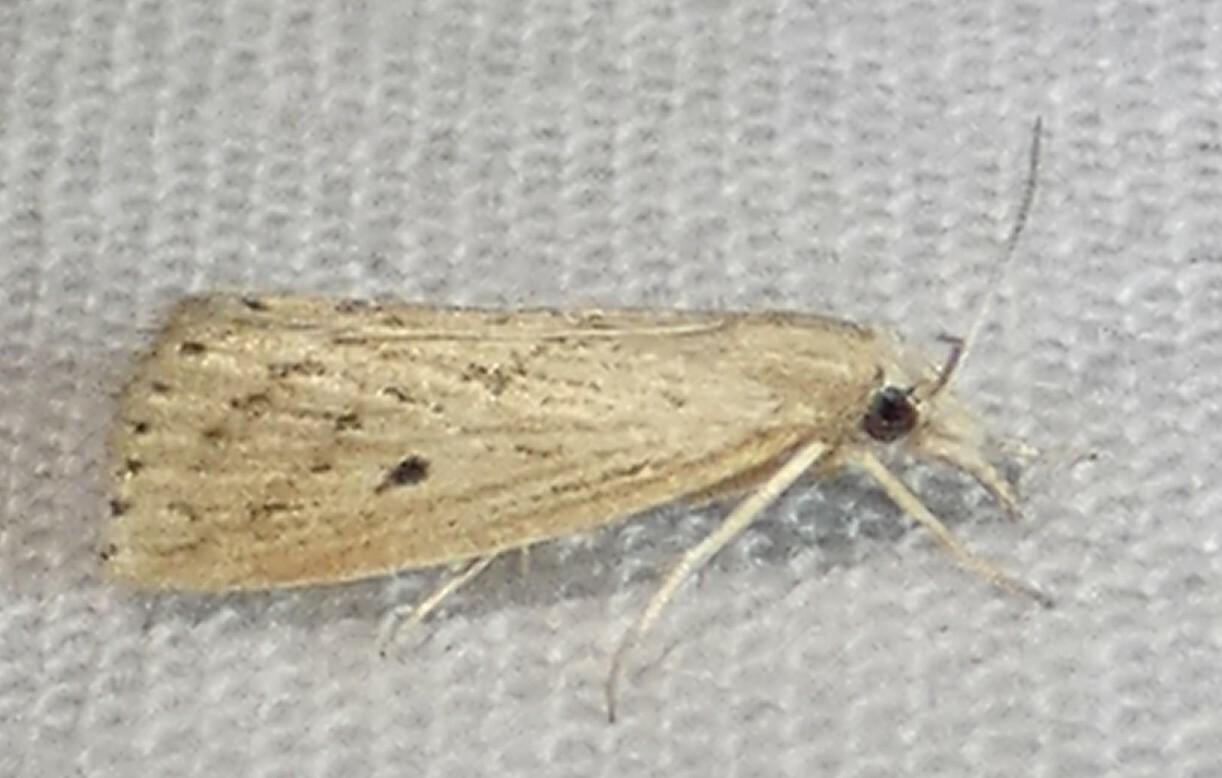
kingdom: Animalia
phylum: Arthropoda
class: Insecta
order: Lepidoptera
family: Crambidae
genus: Diatraea
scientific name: Diatraea lisetta
